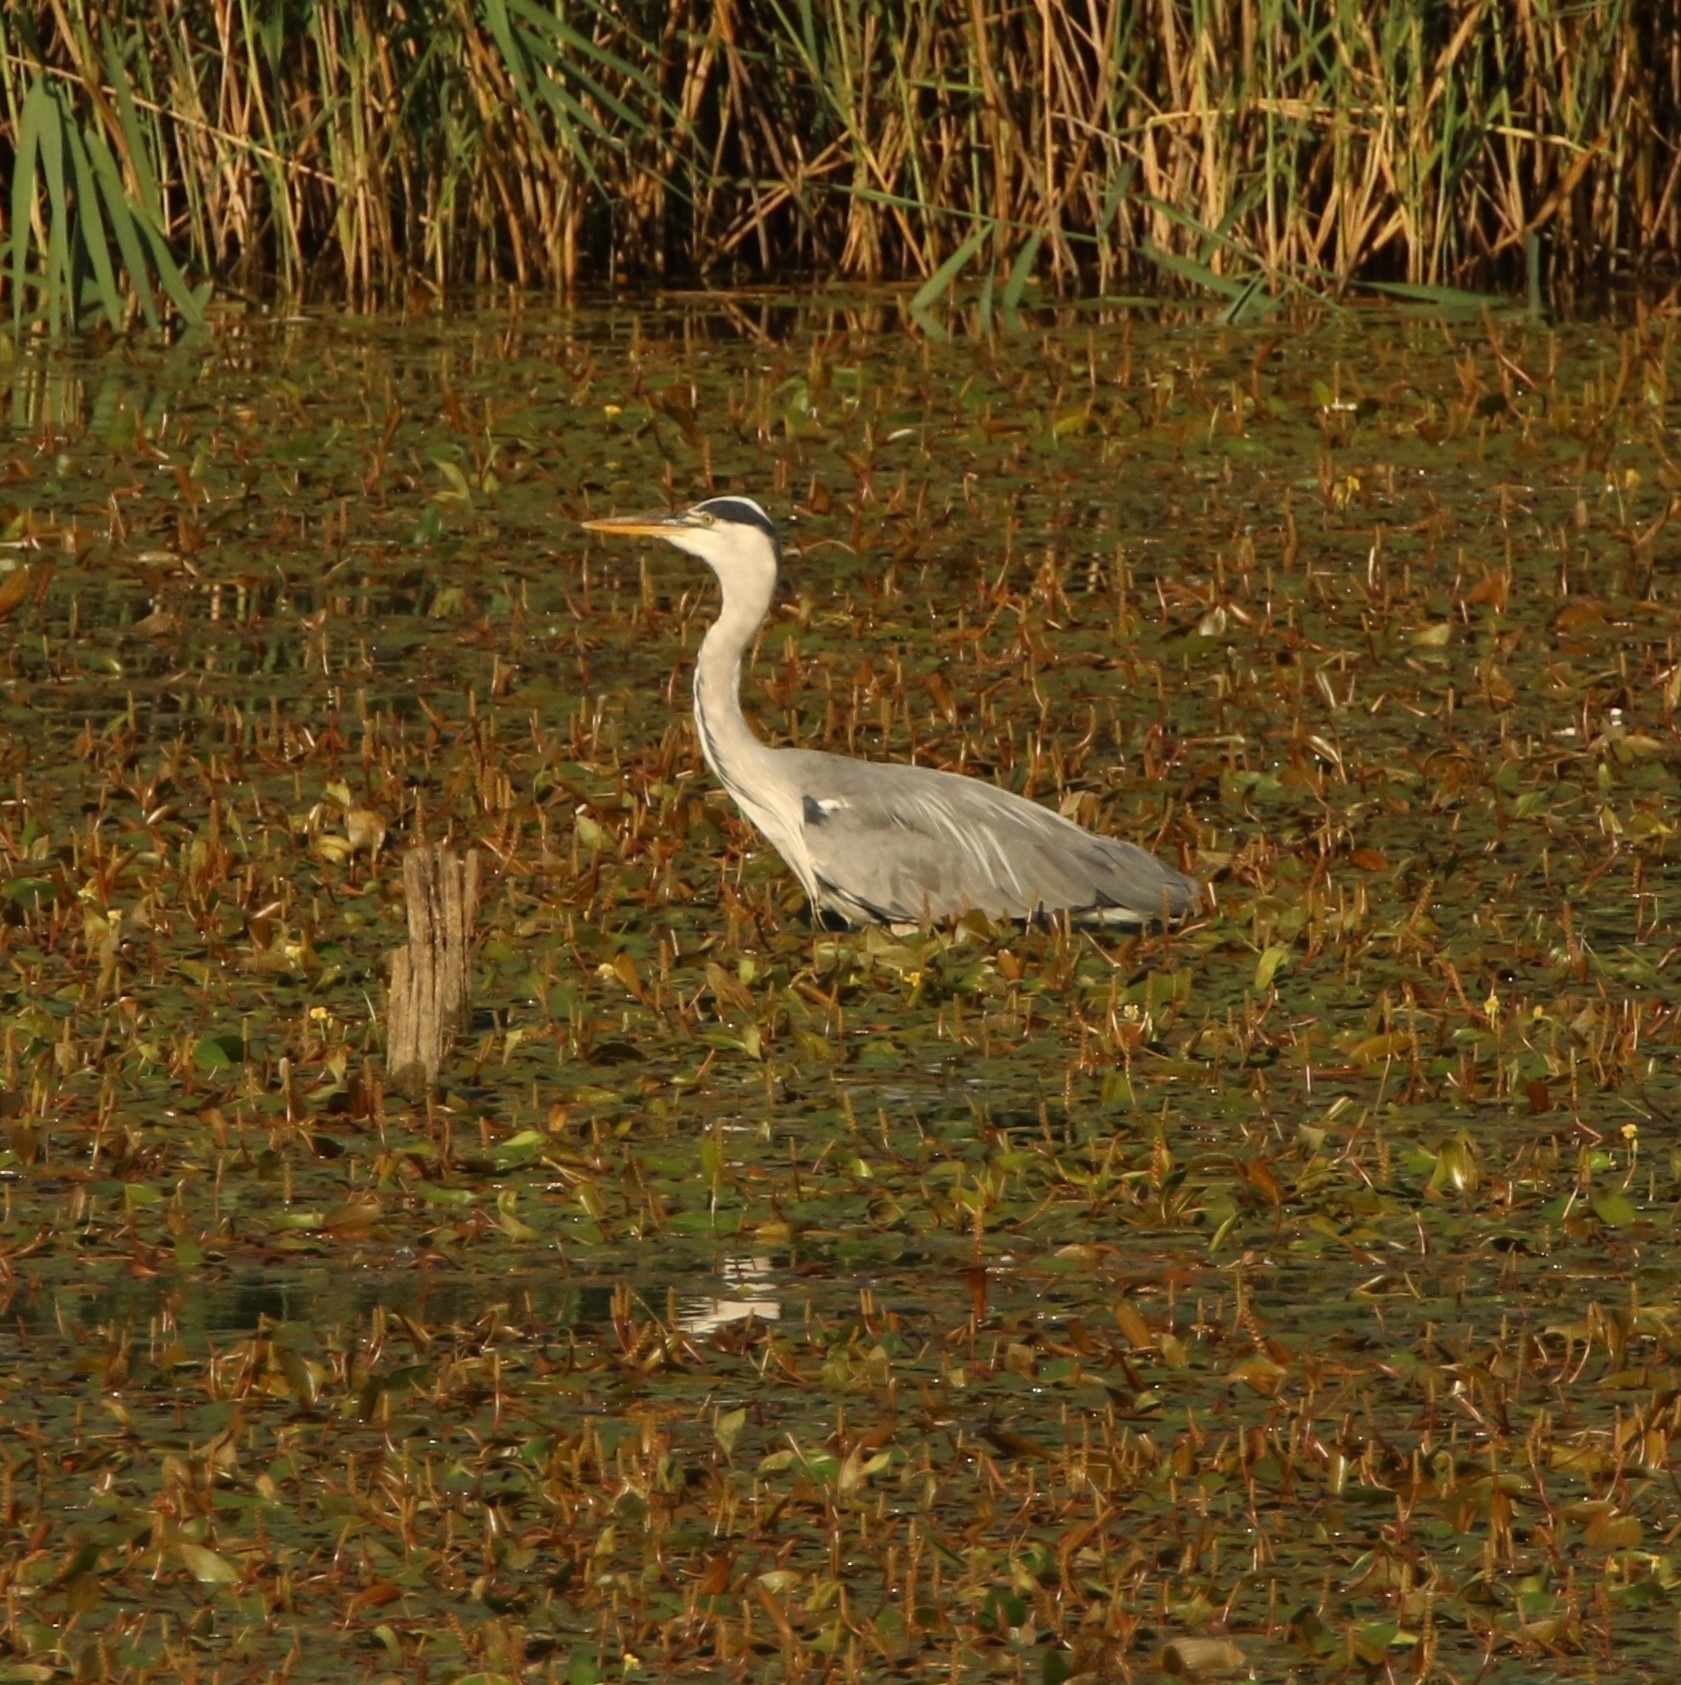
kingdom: Animalia
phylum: Chordata
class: Aves
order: Pelecaniformes
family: Ardeidae
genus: Ardea
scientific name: Ardea cinerea
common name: Grey heron
